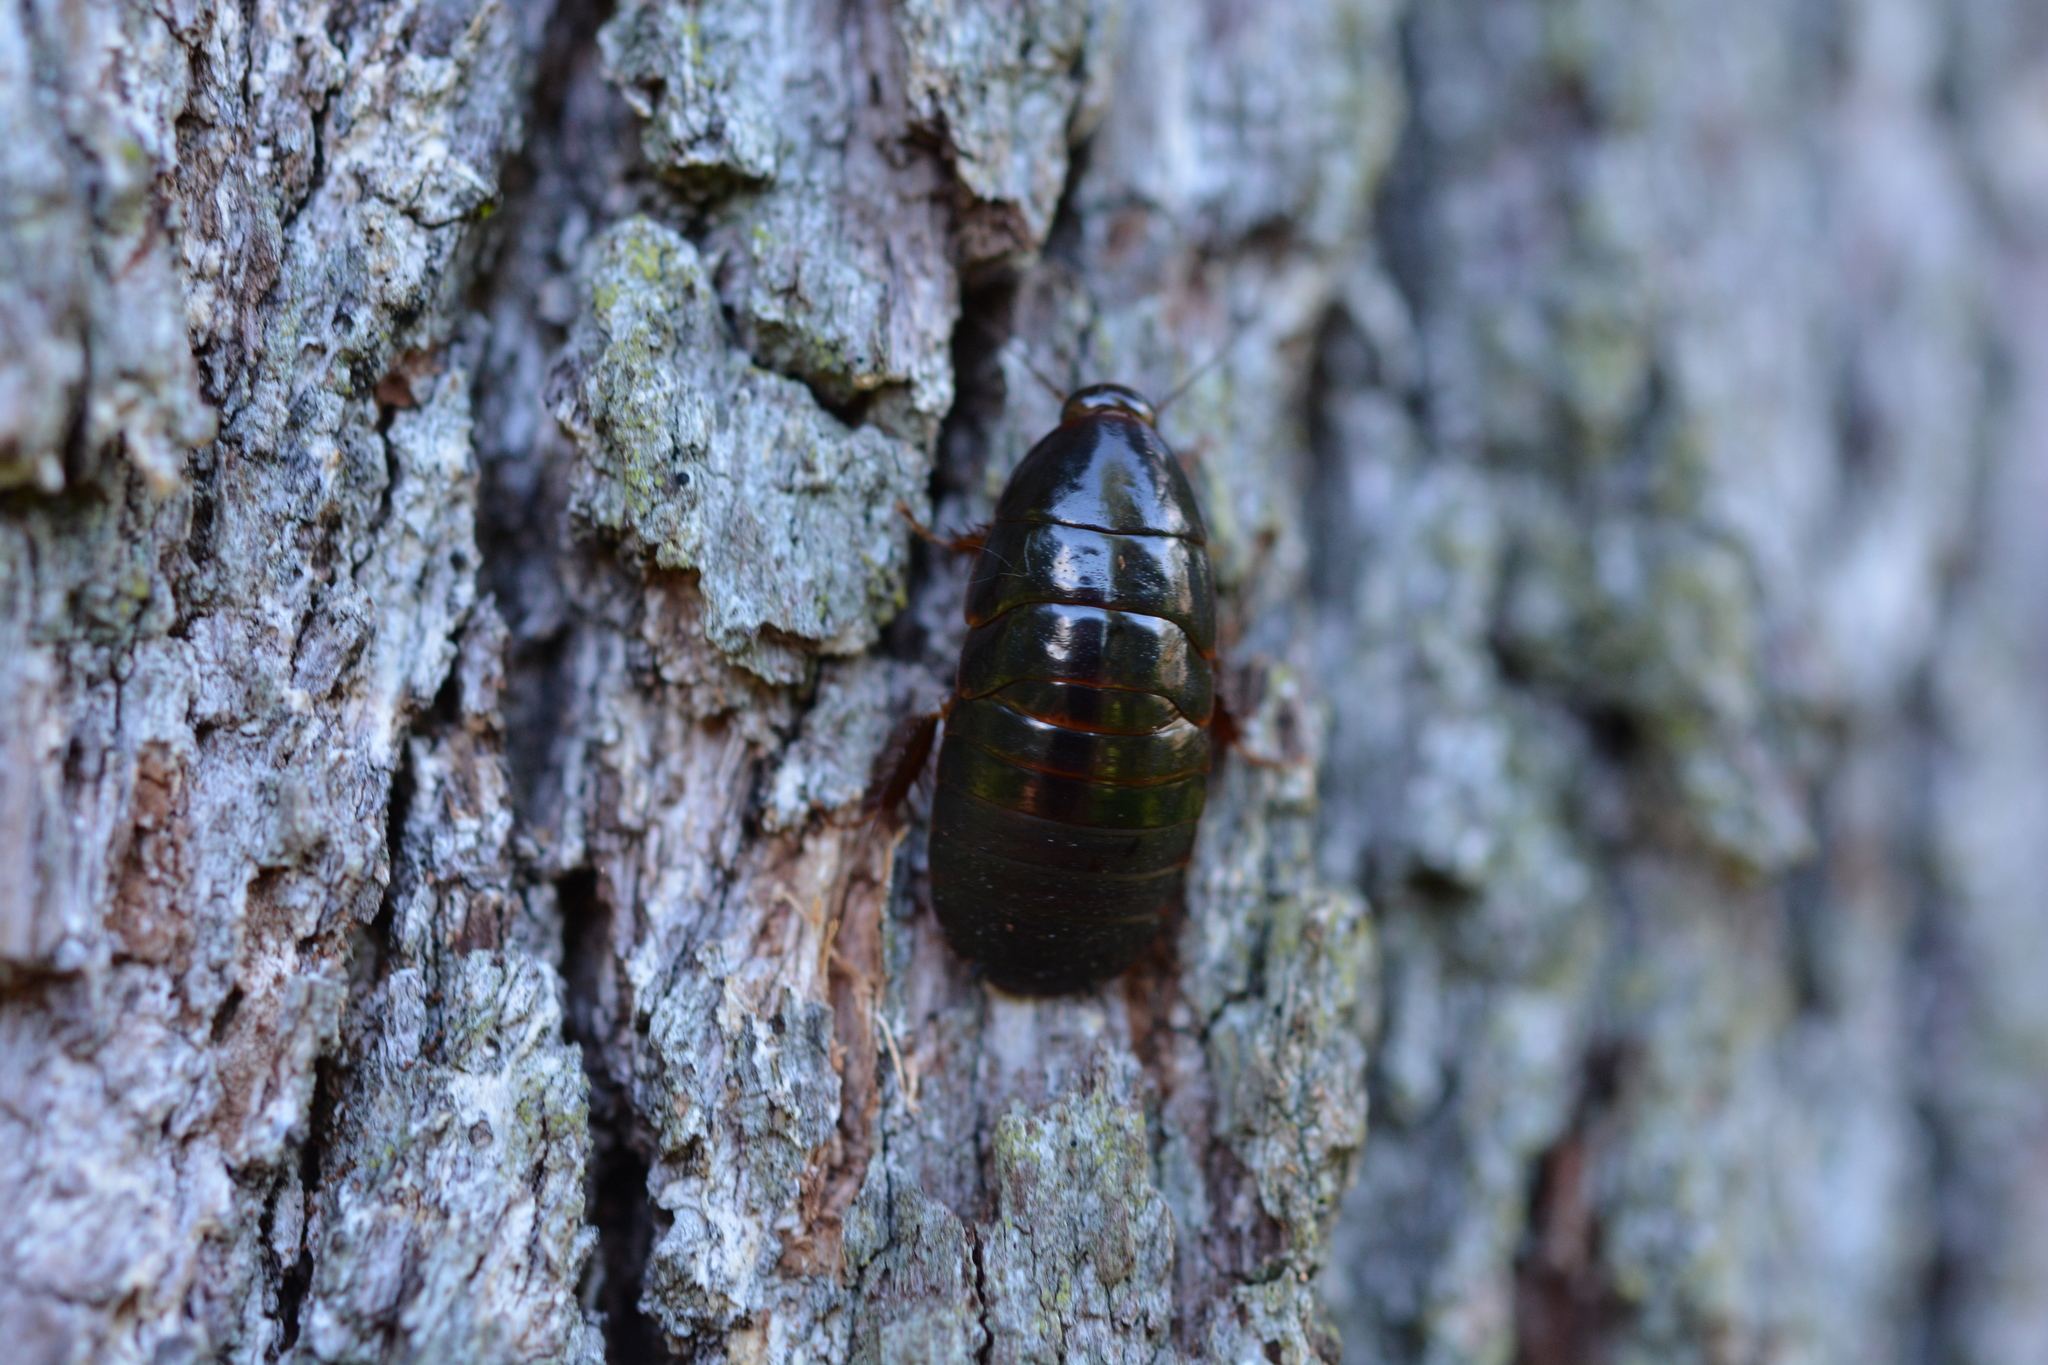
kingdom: Animalia
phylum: Arthropoda
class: Insecta
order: Blattodea
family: Blaberidae
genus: Pycnoscelus
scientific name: Pycnoscelus surinamensis
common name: Surinam cockroach
